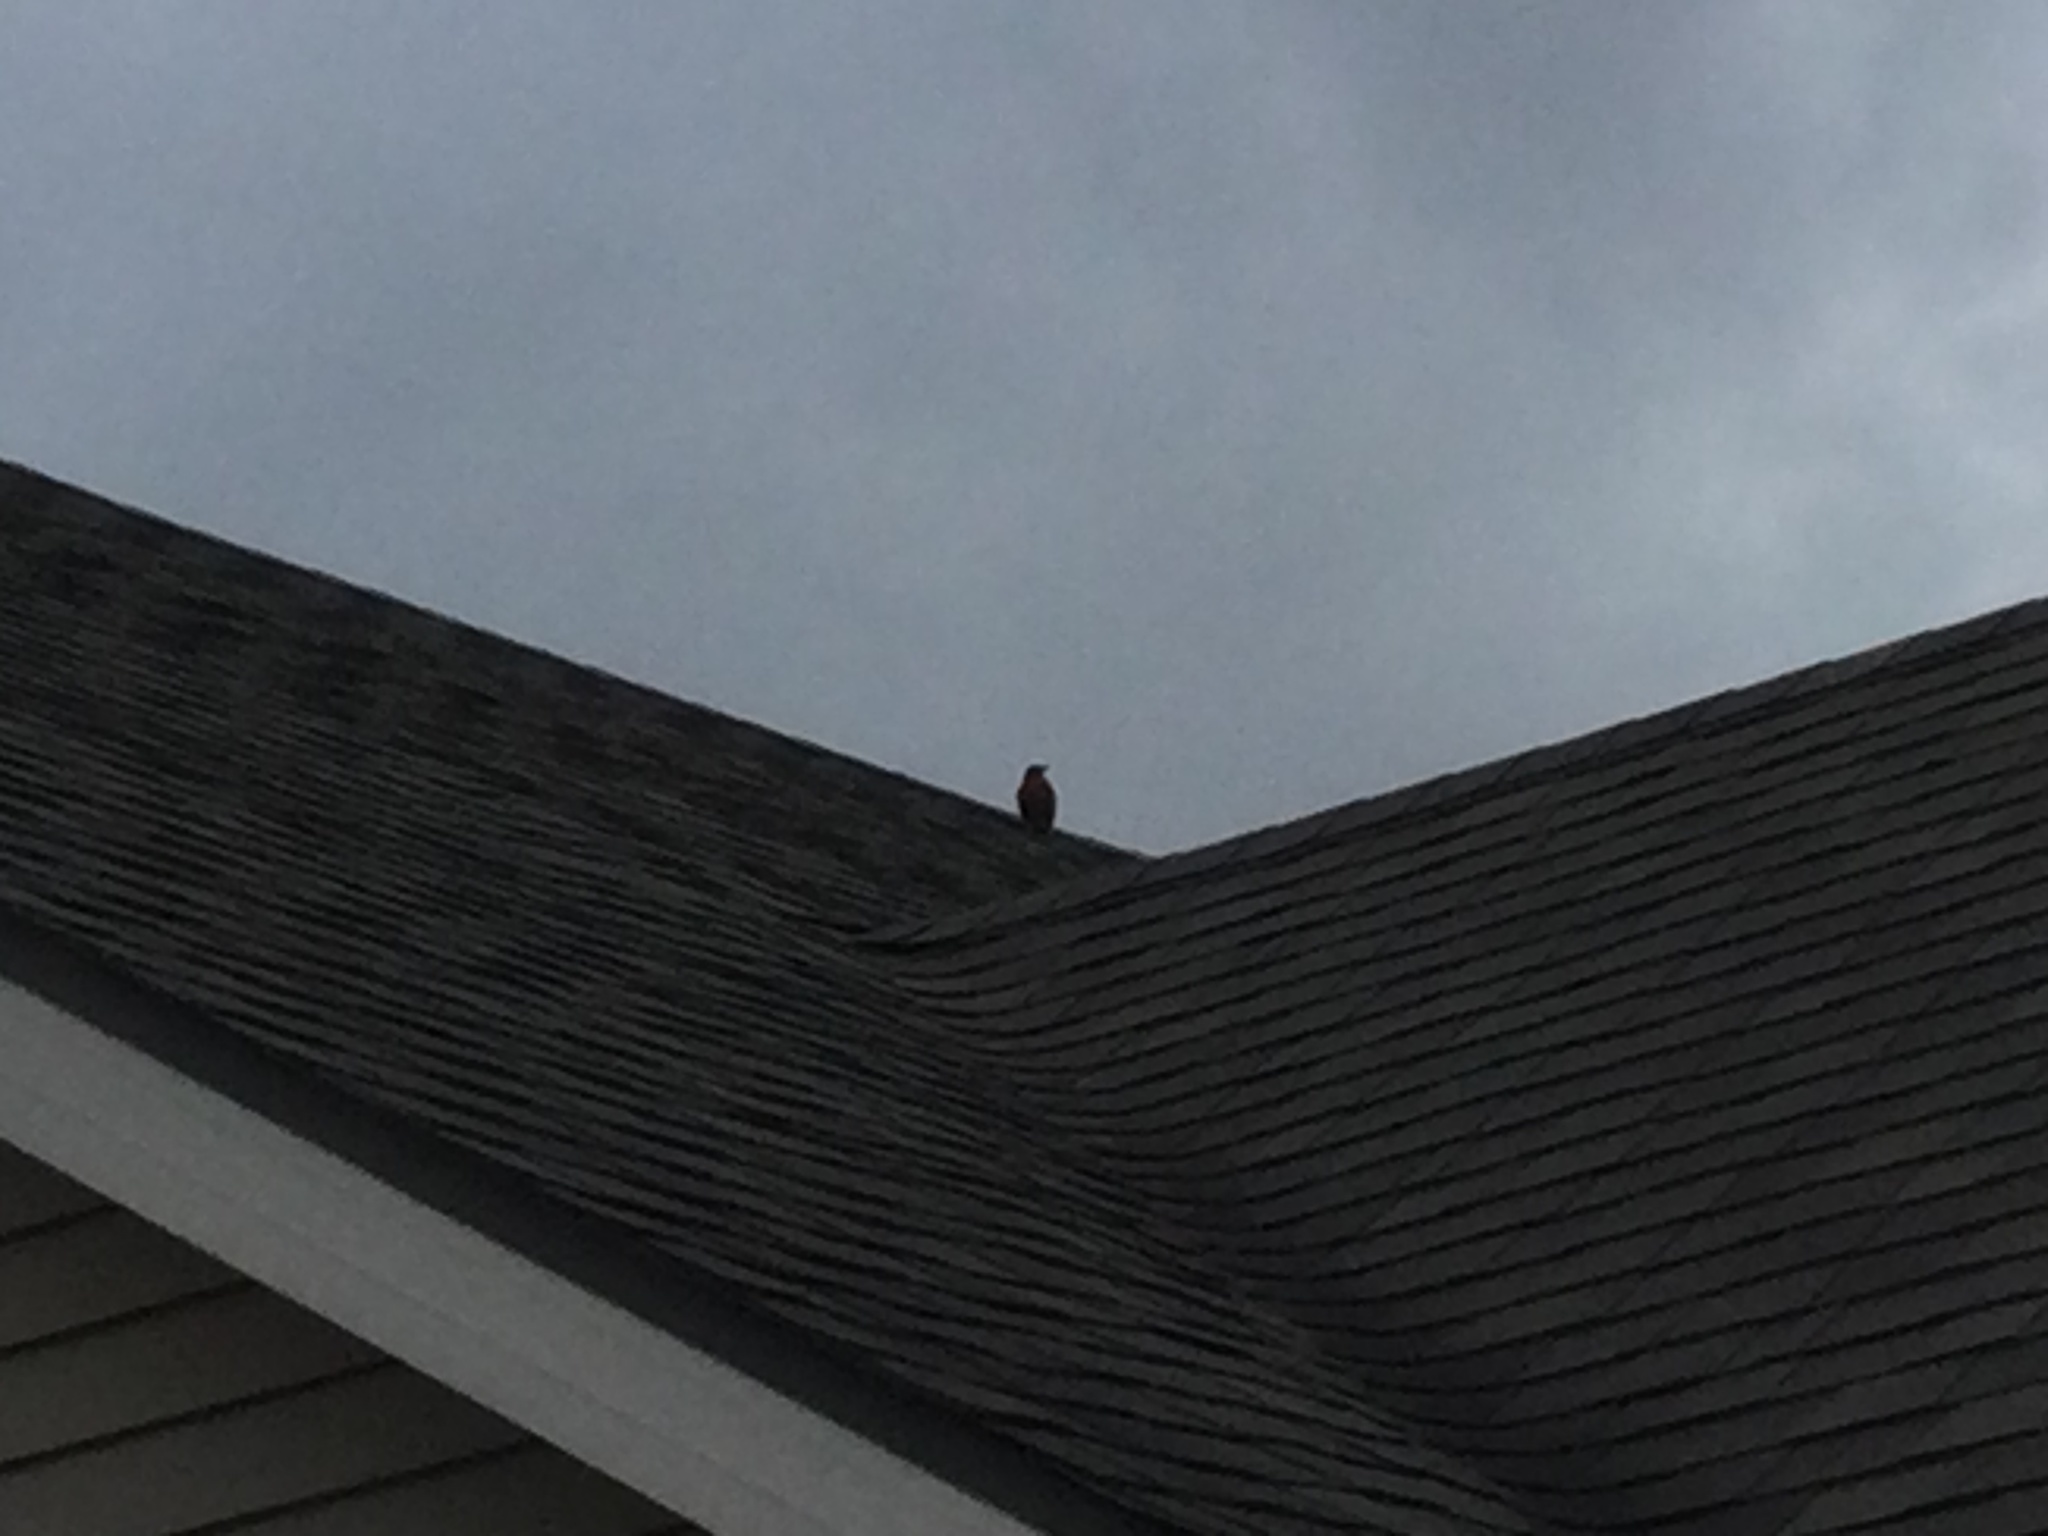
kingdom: Animalia
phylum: Chordata
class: Aves
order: Passeriformes
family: Turdidae
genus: Turdus
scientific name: Turdus migratorius
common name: American robin
